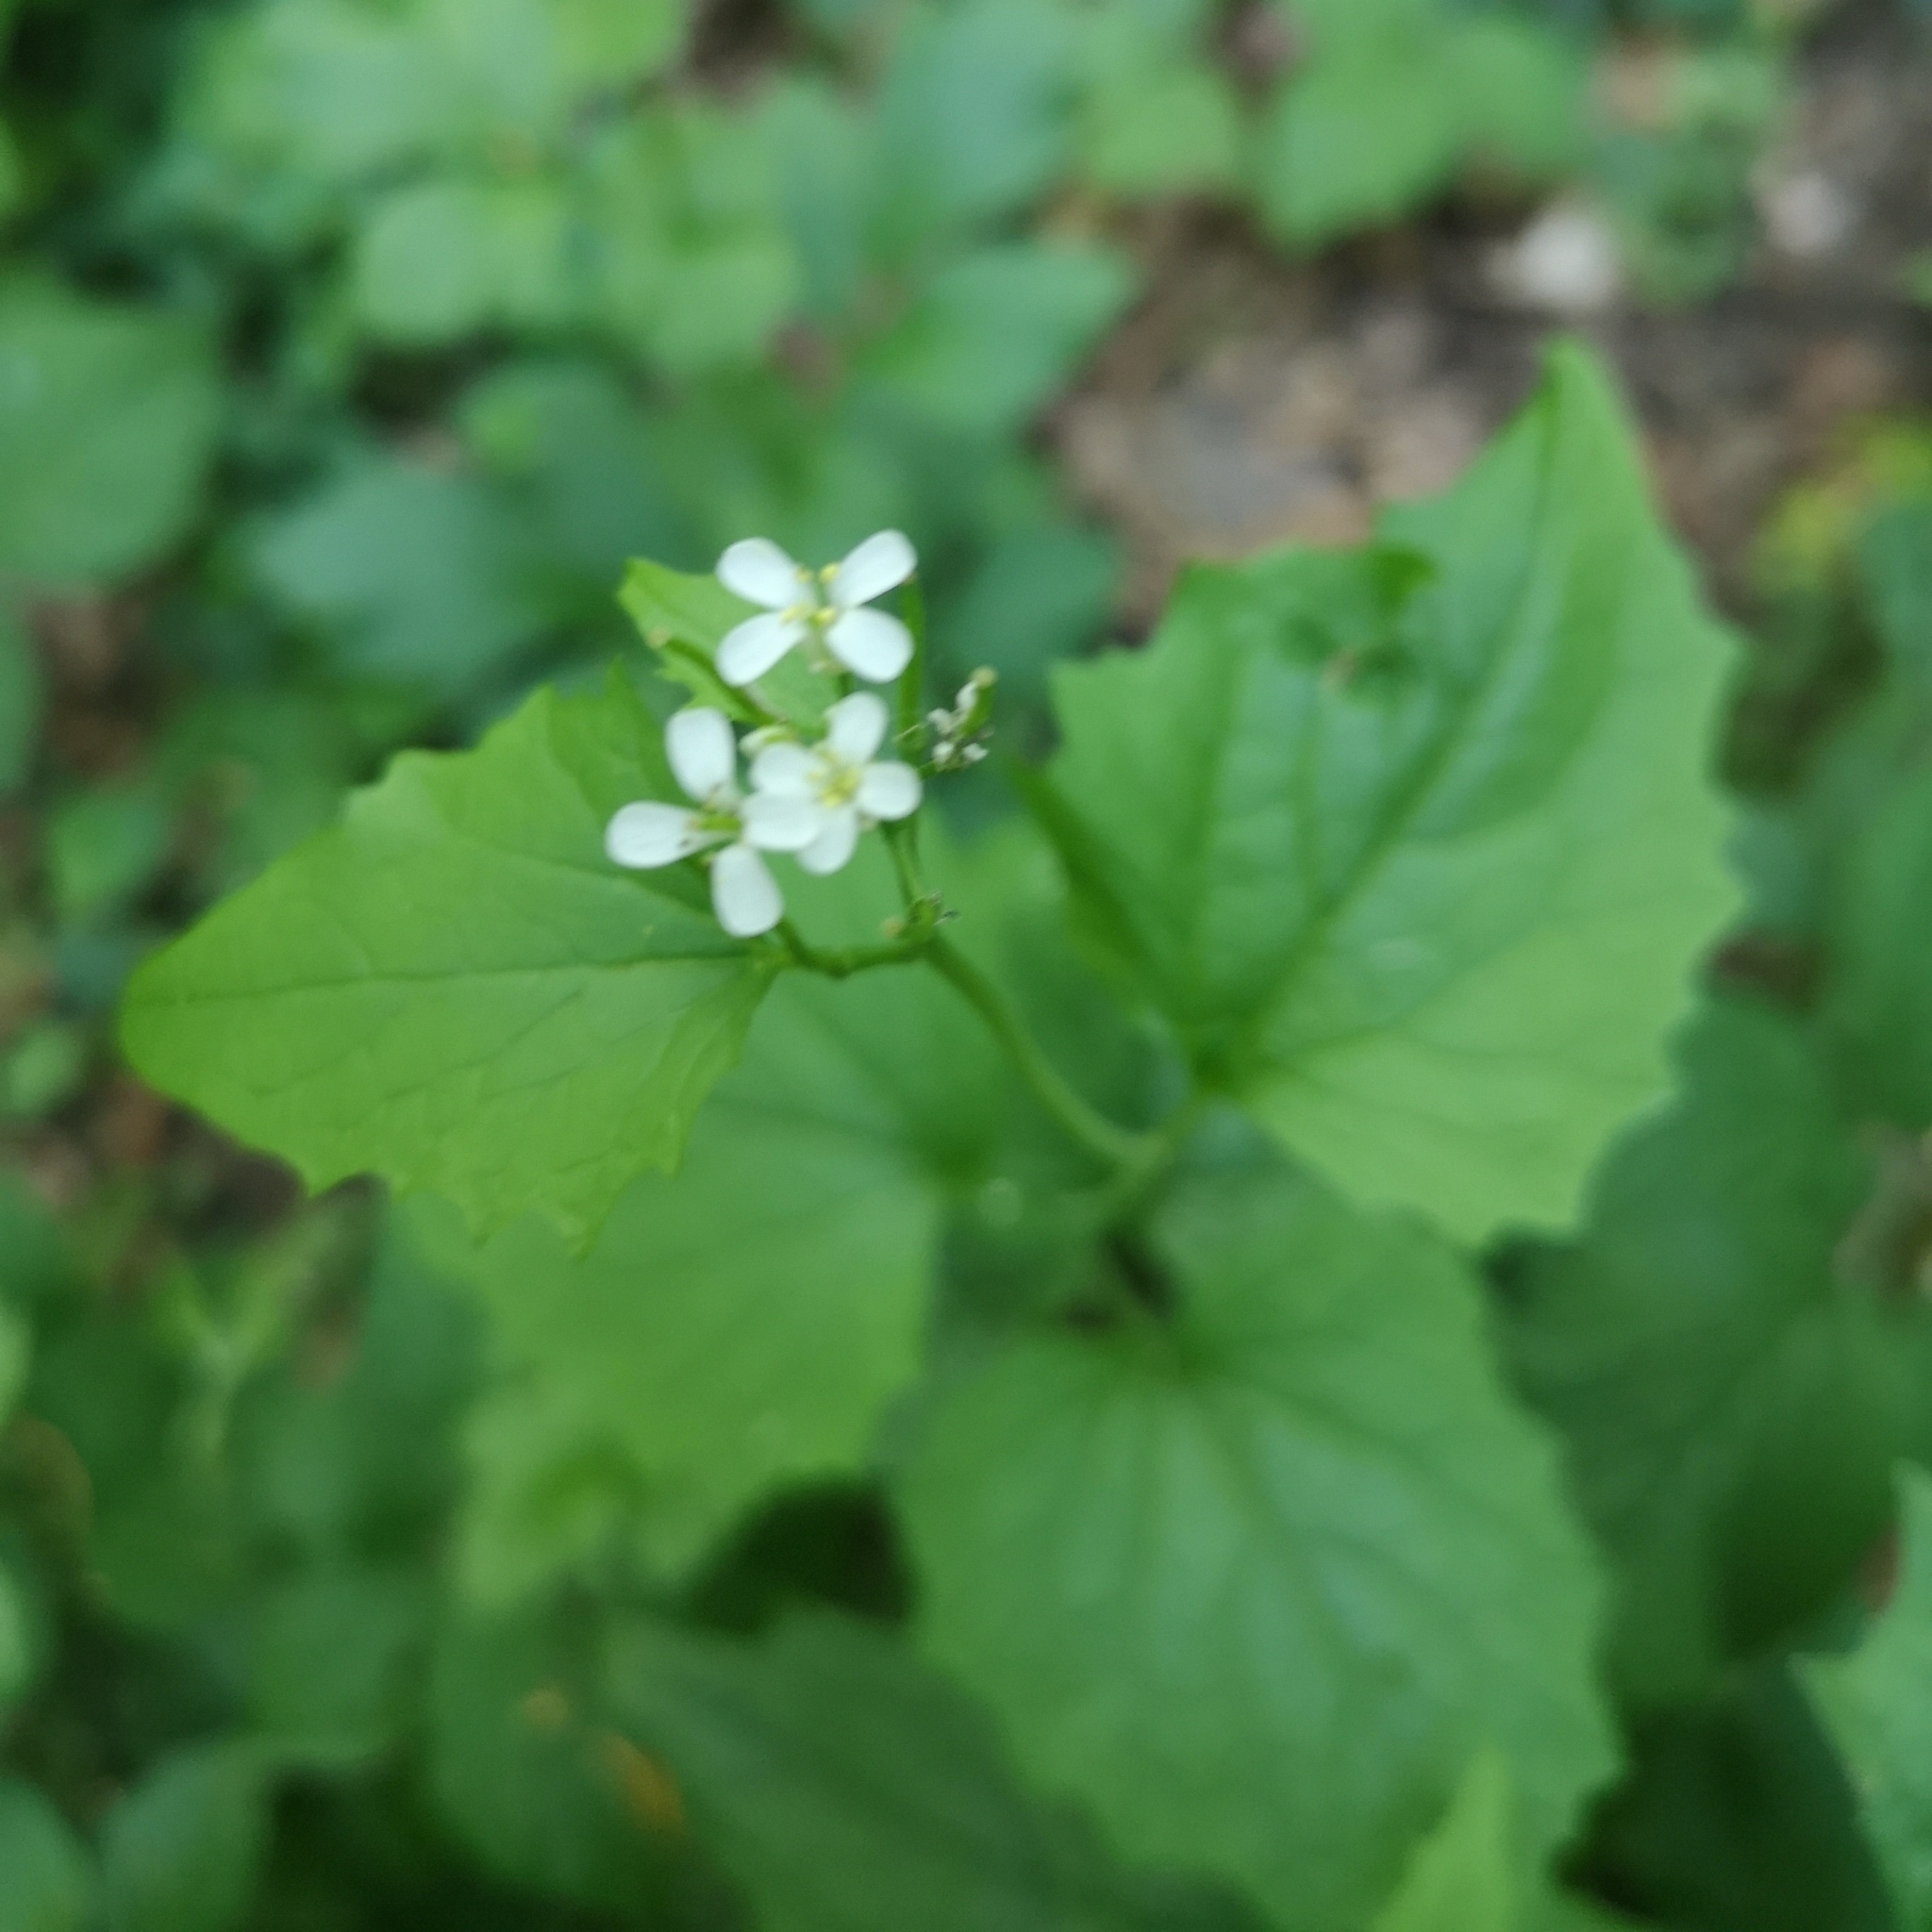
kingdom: Plantae
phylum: Tracheophyta
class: Magnoliopsida
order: Brassicales
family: Brassicaceae
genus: Alliaria
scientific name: Alliaria petiolata
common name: Garlic mustard
